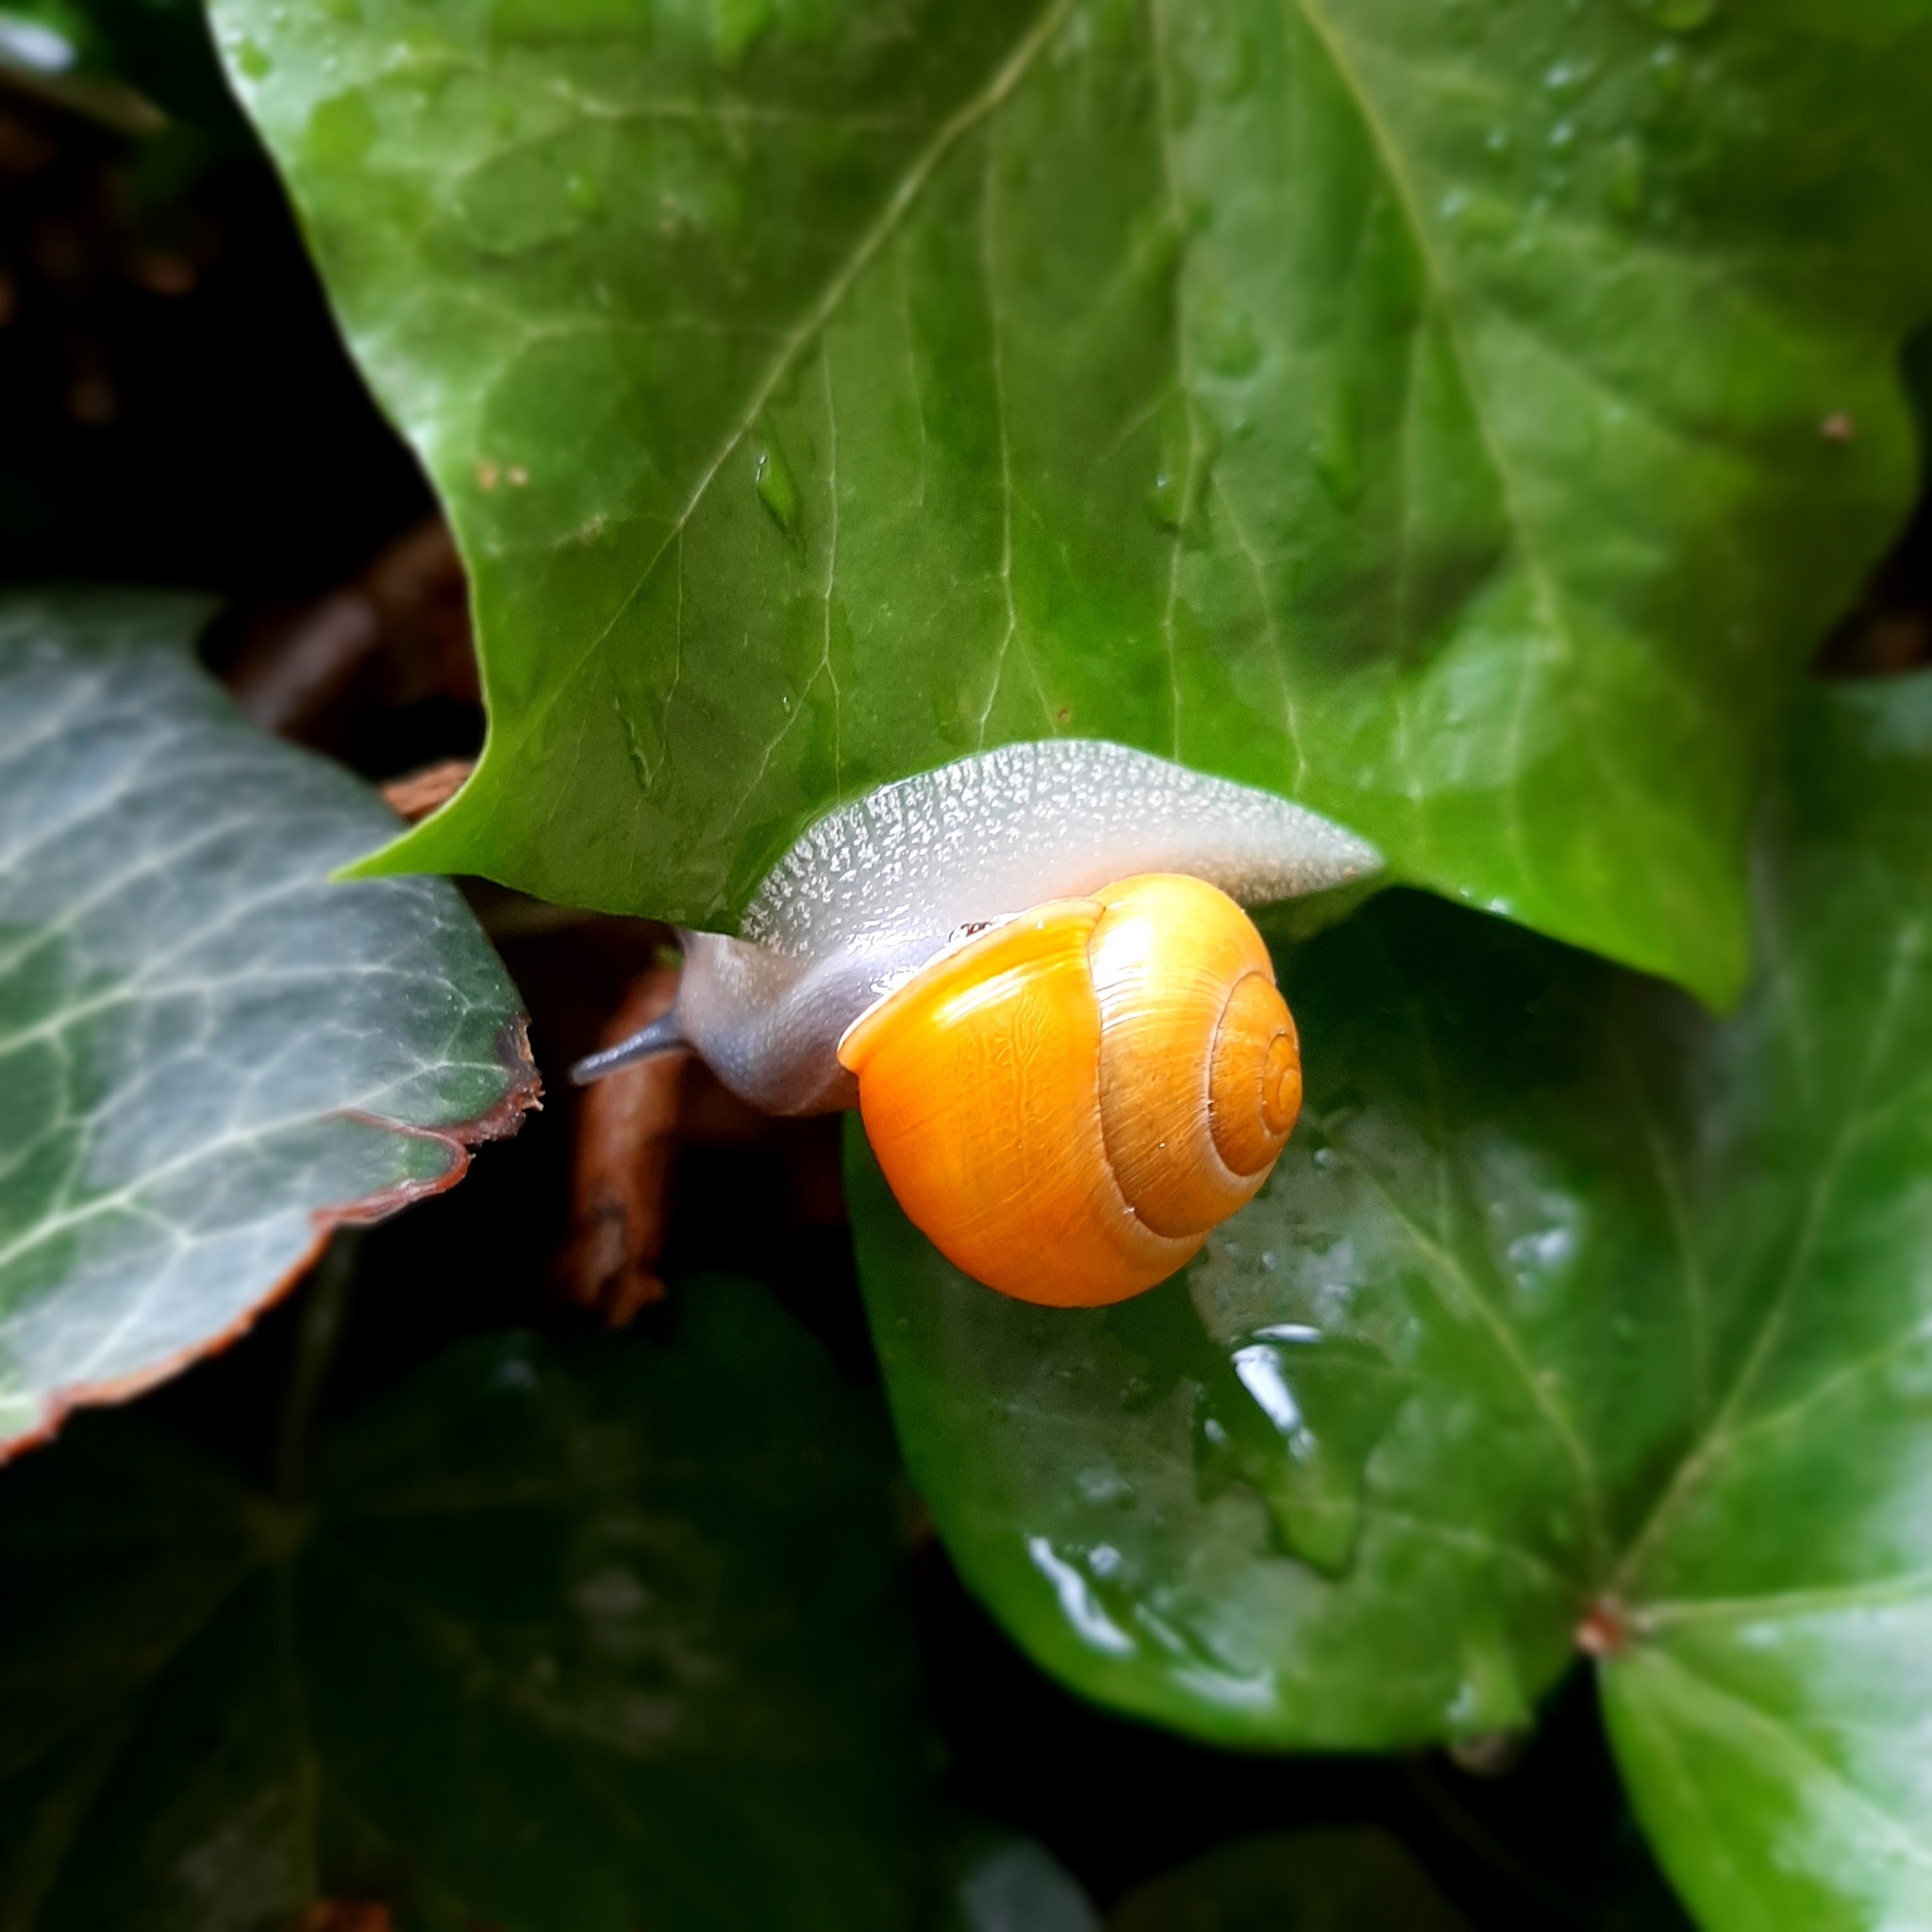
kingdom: Animalia
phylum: Mollusca
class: Gastropoda
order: Stylommatophora
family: Helicidae
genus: Cepaea
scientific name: Cepaea hortensis
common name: White-lip gardensnail
